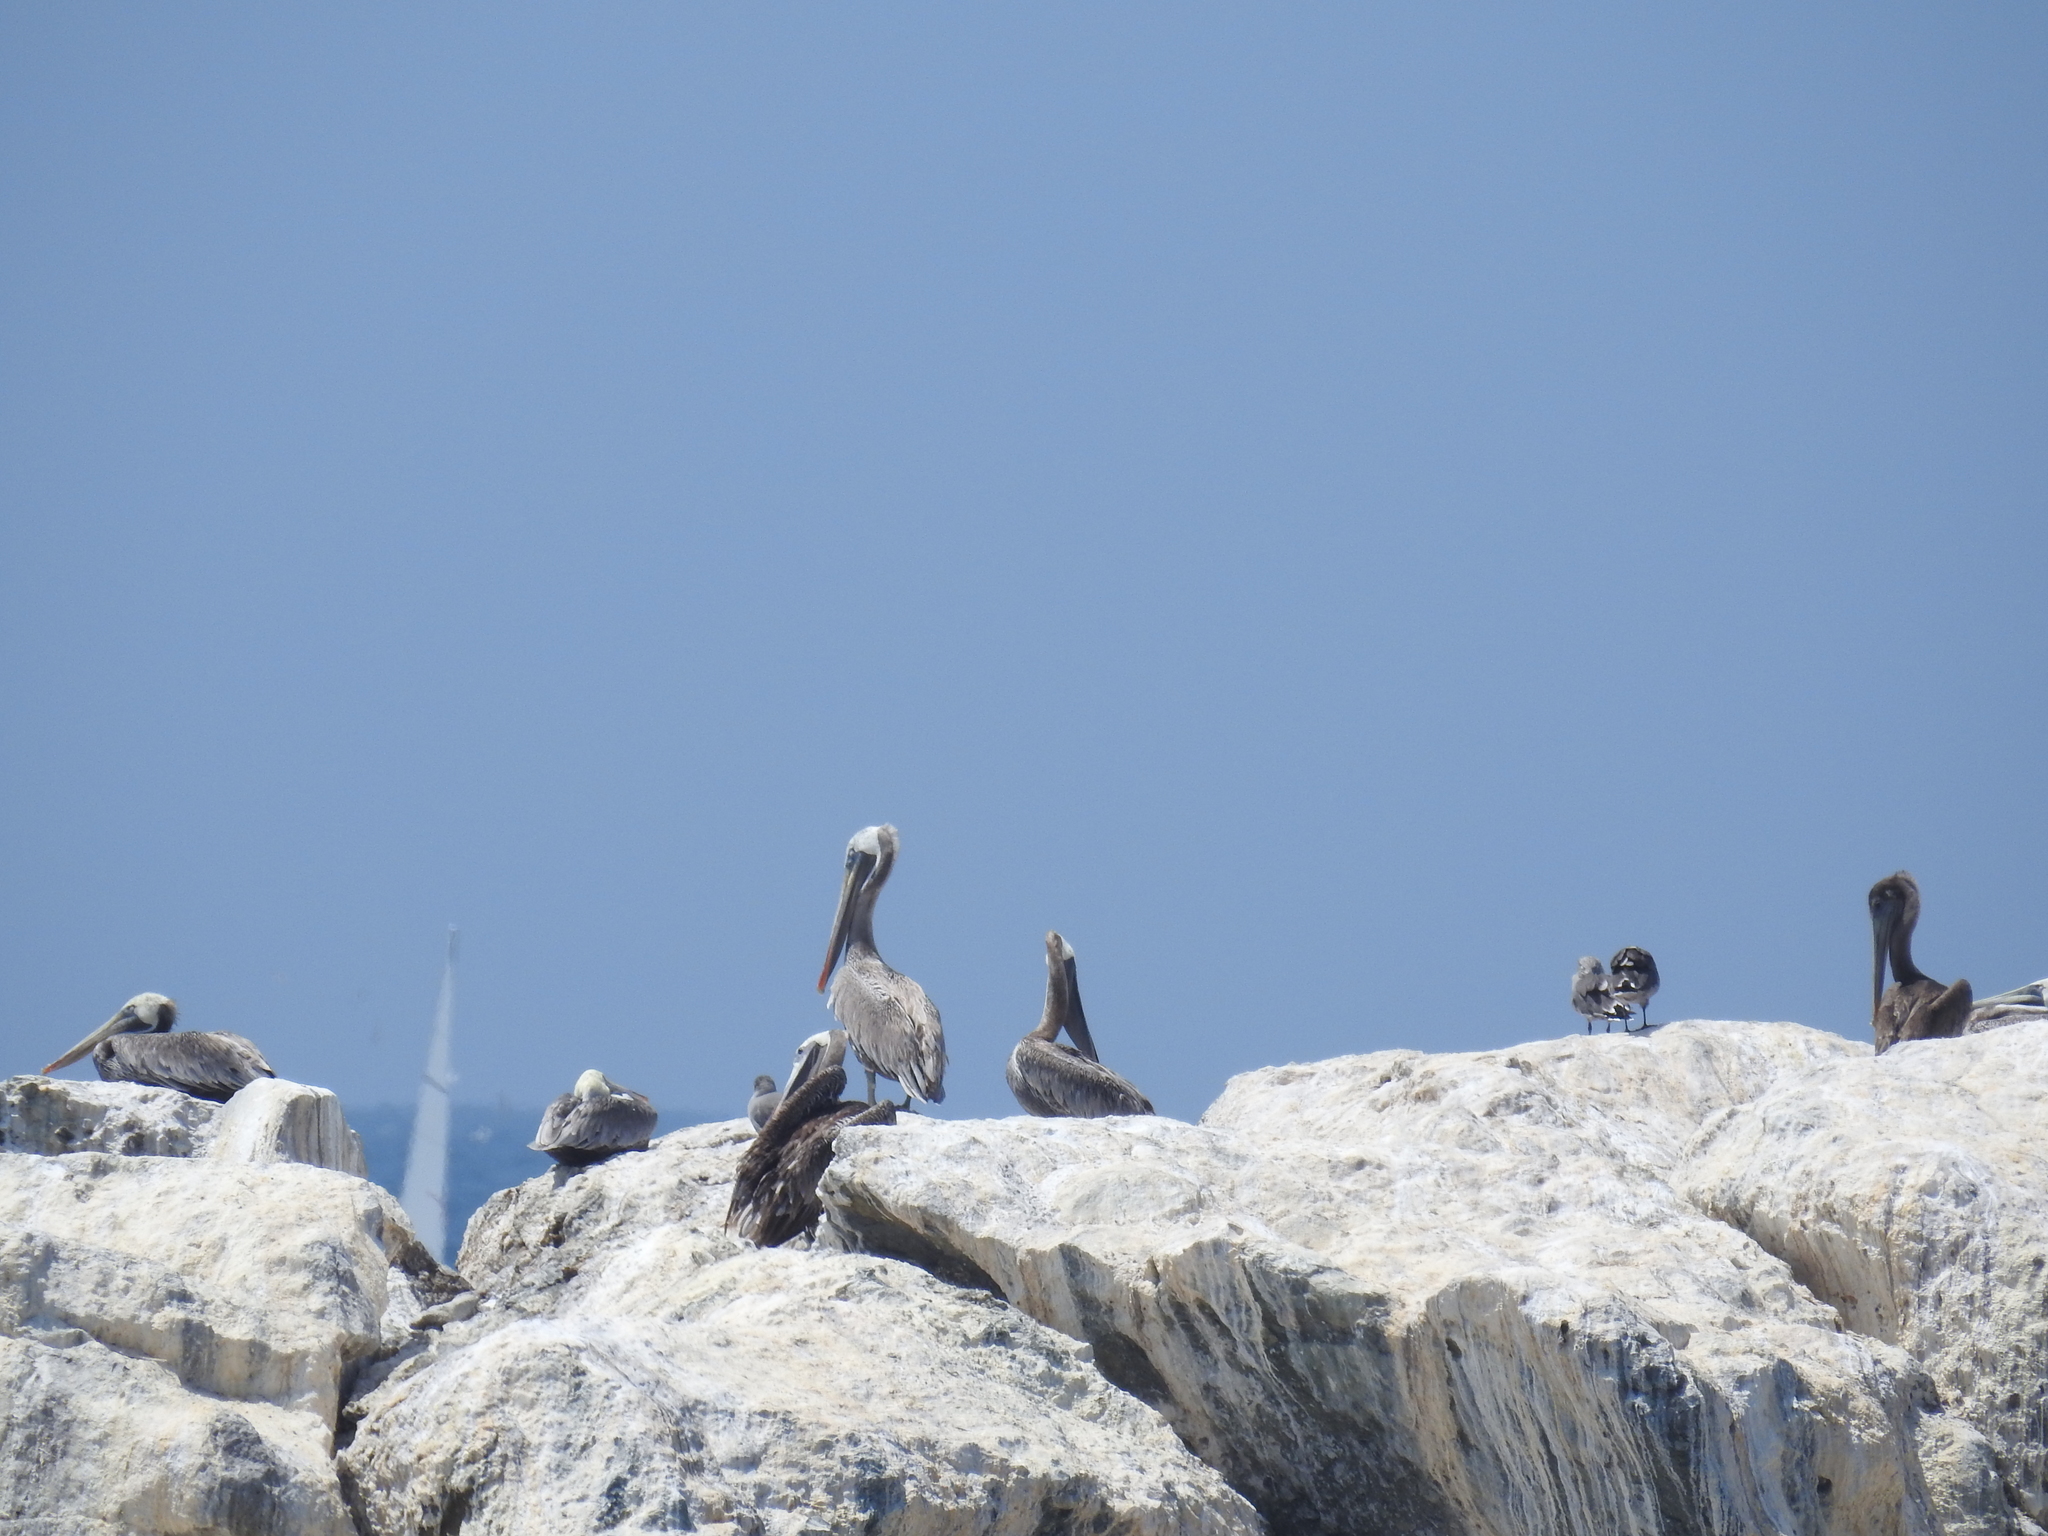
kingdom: Animalia
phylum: Chordata
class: Aves
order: Pelecaniformes
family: Pelecanidae
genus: Pelecanus
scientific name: Pelecanus occidentalis
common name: Brown pelican
